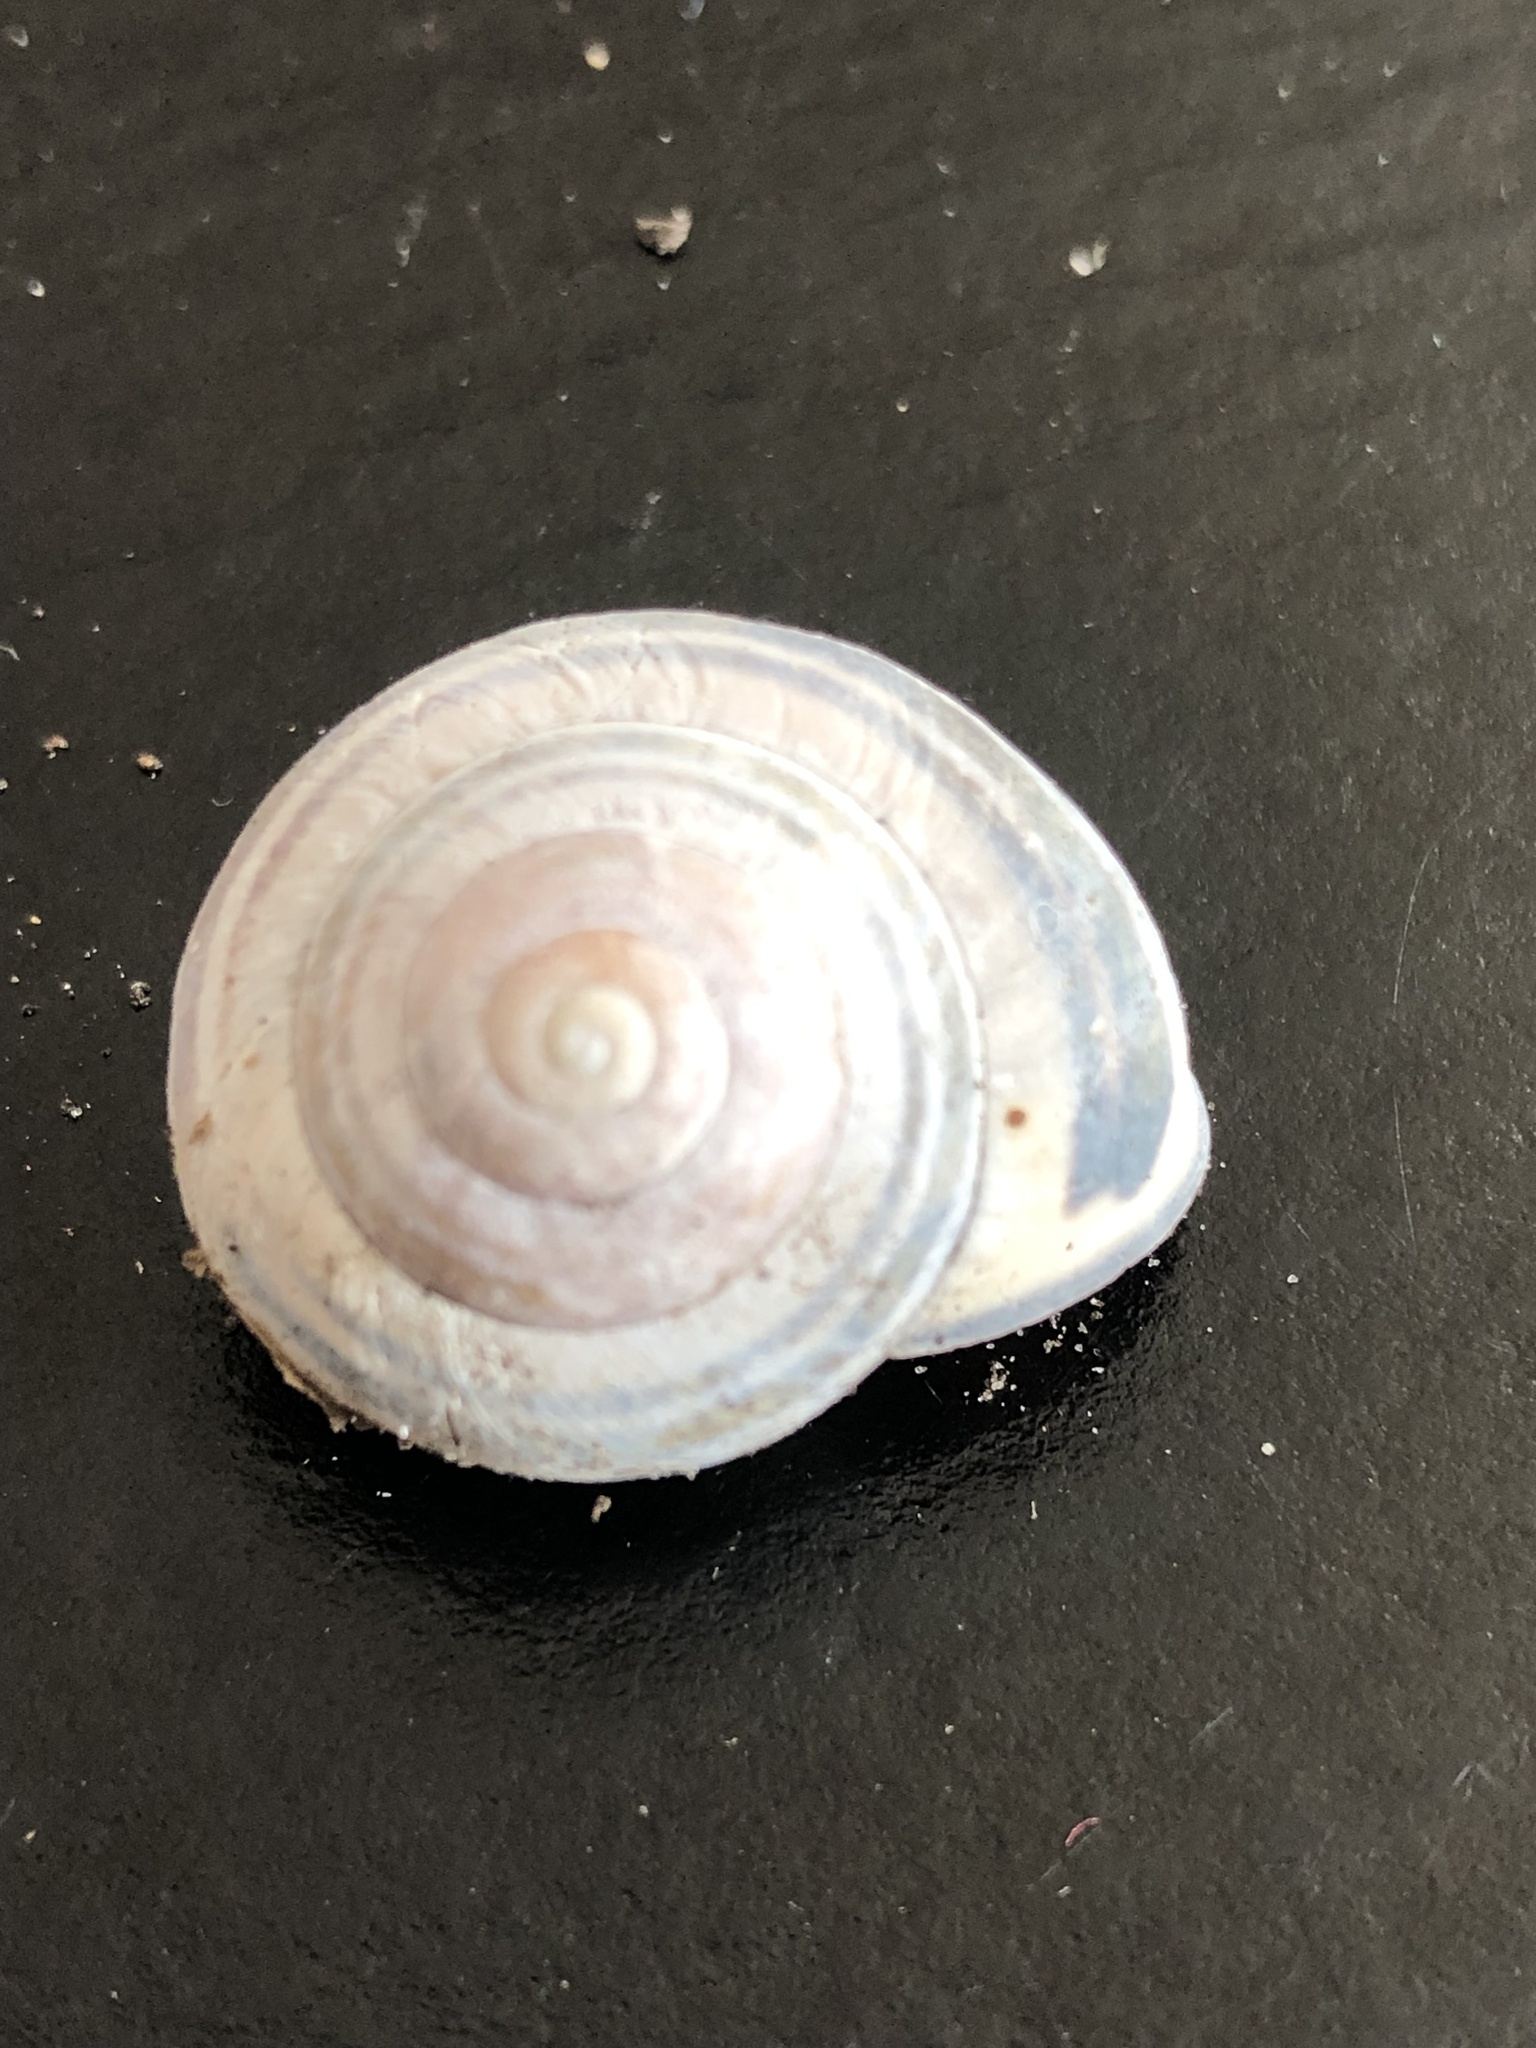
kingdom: Animalia
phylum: Mollusca
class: Gastropoda
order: Stylommatophora
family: Helicidae
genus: Cepaea
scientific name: Cepaea nemoralis
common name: Grovesnail
